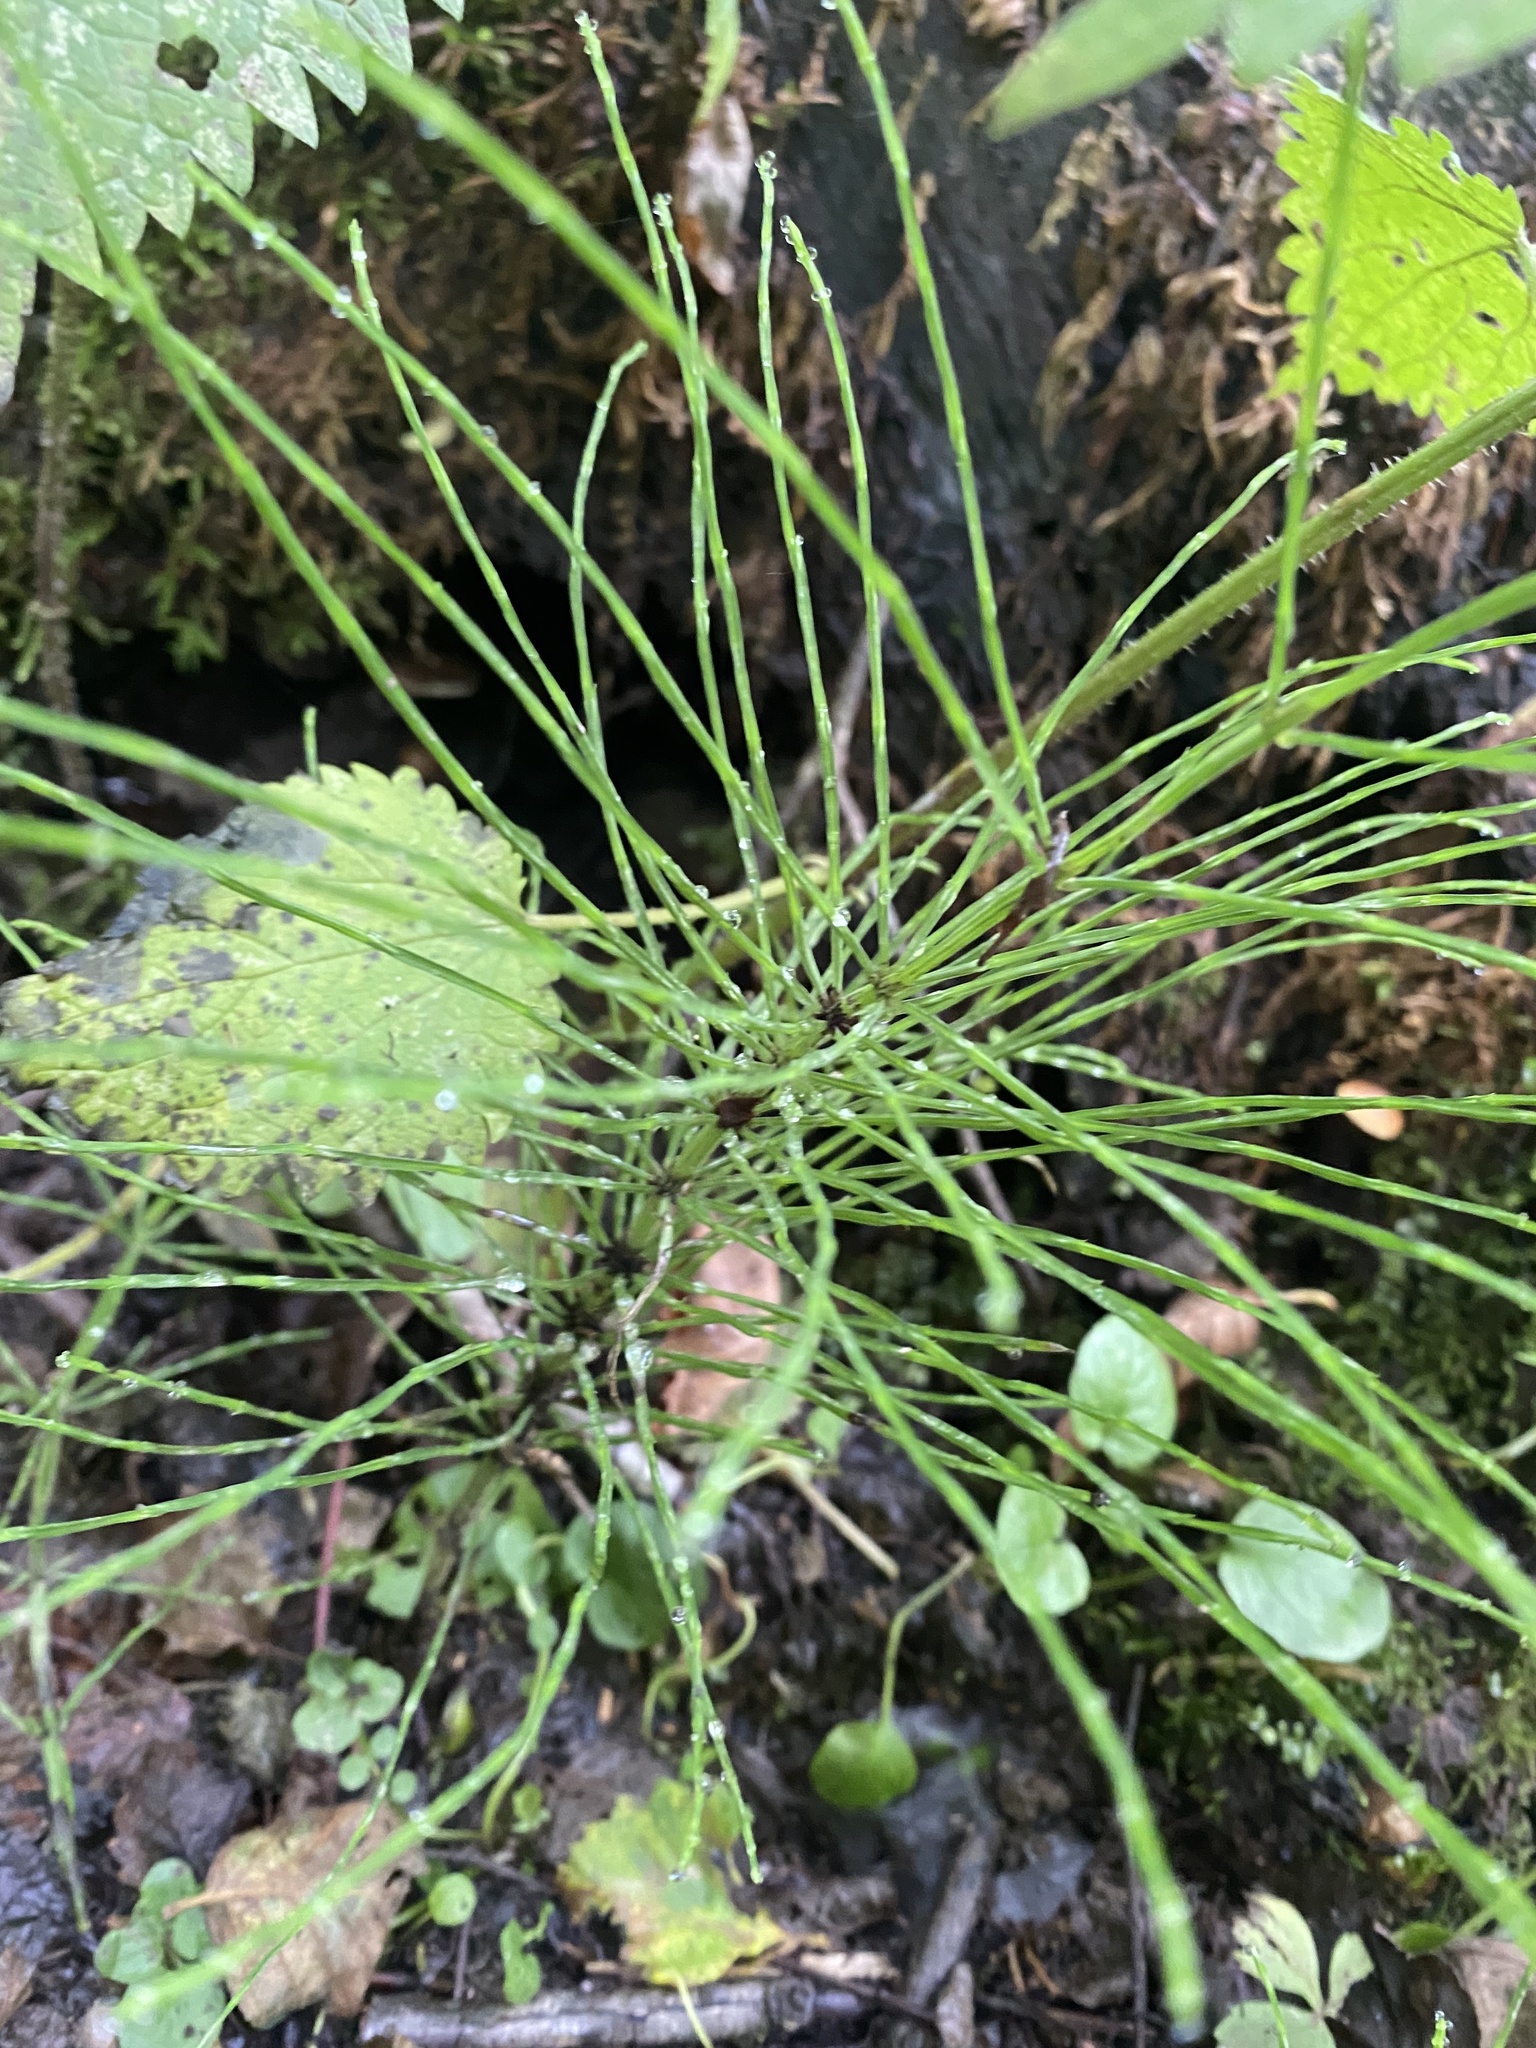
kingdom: Plantae
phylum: Tracheophyta
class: Polypodiopsida
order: Equisetales
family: Equisetaceae
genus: Equisetum
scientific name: Equisetum arvense
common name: Field horsetail
